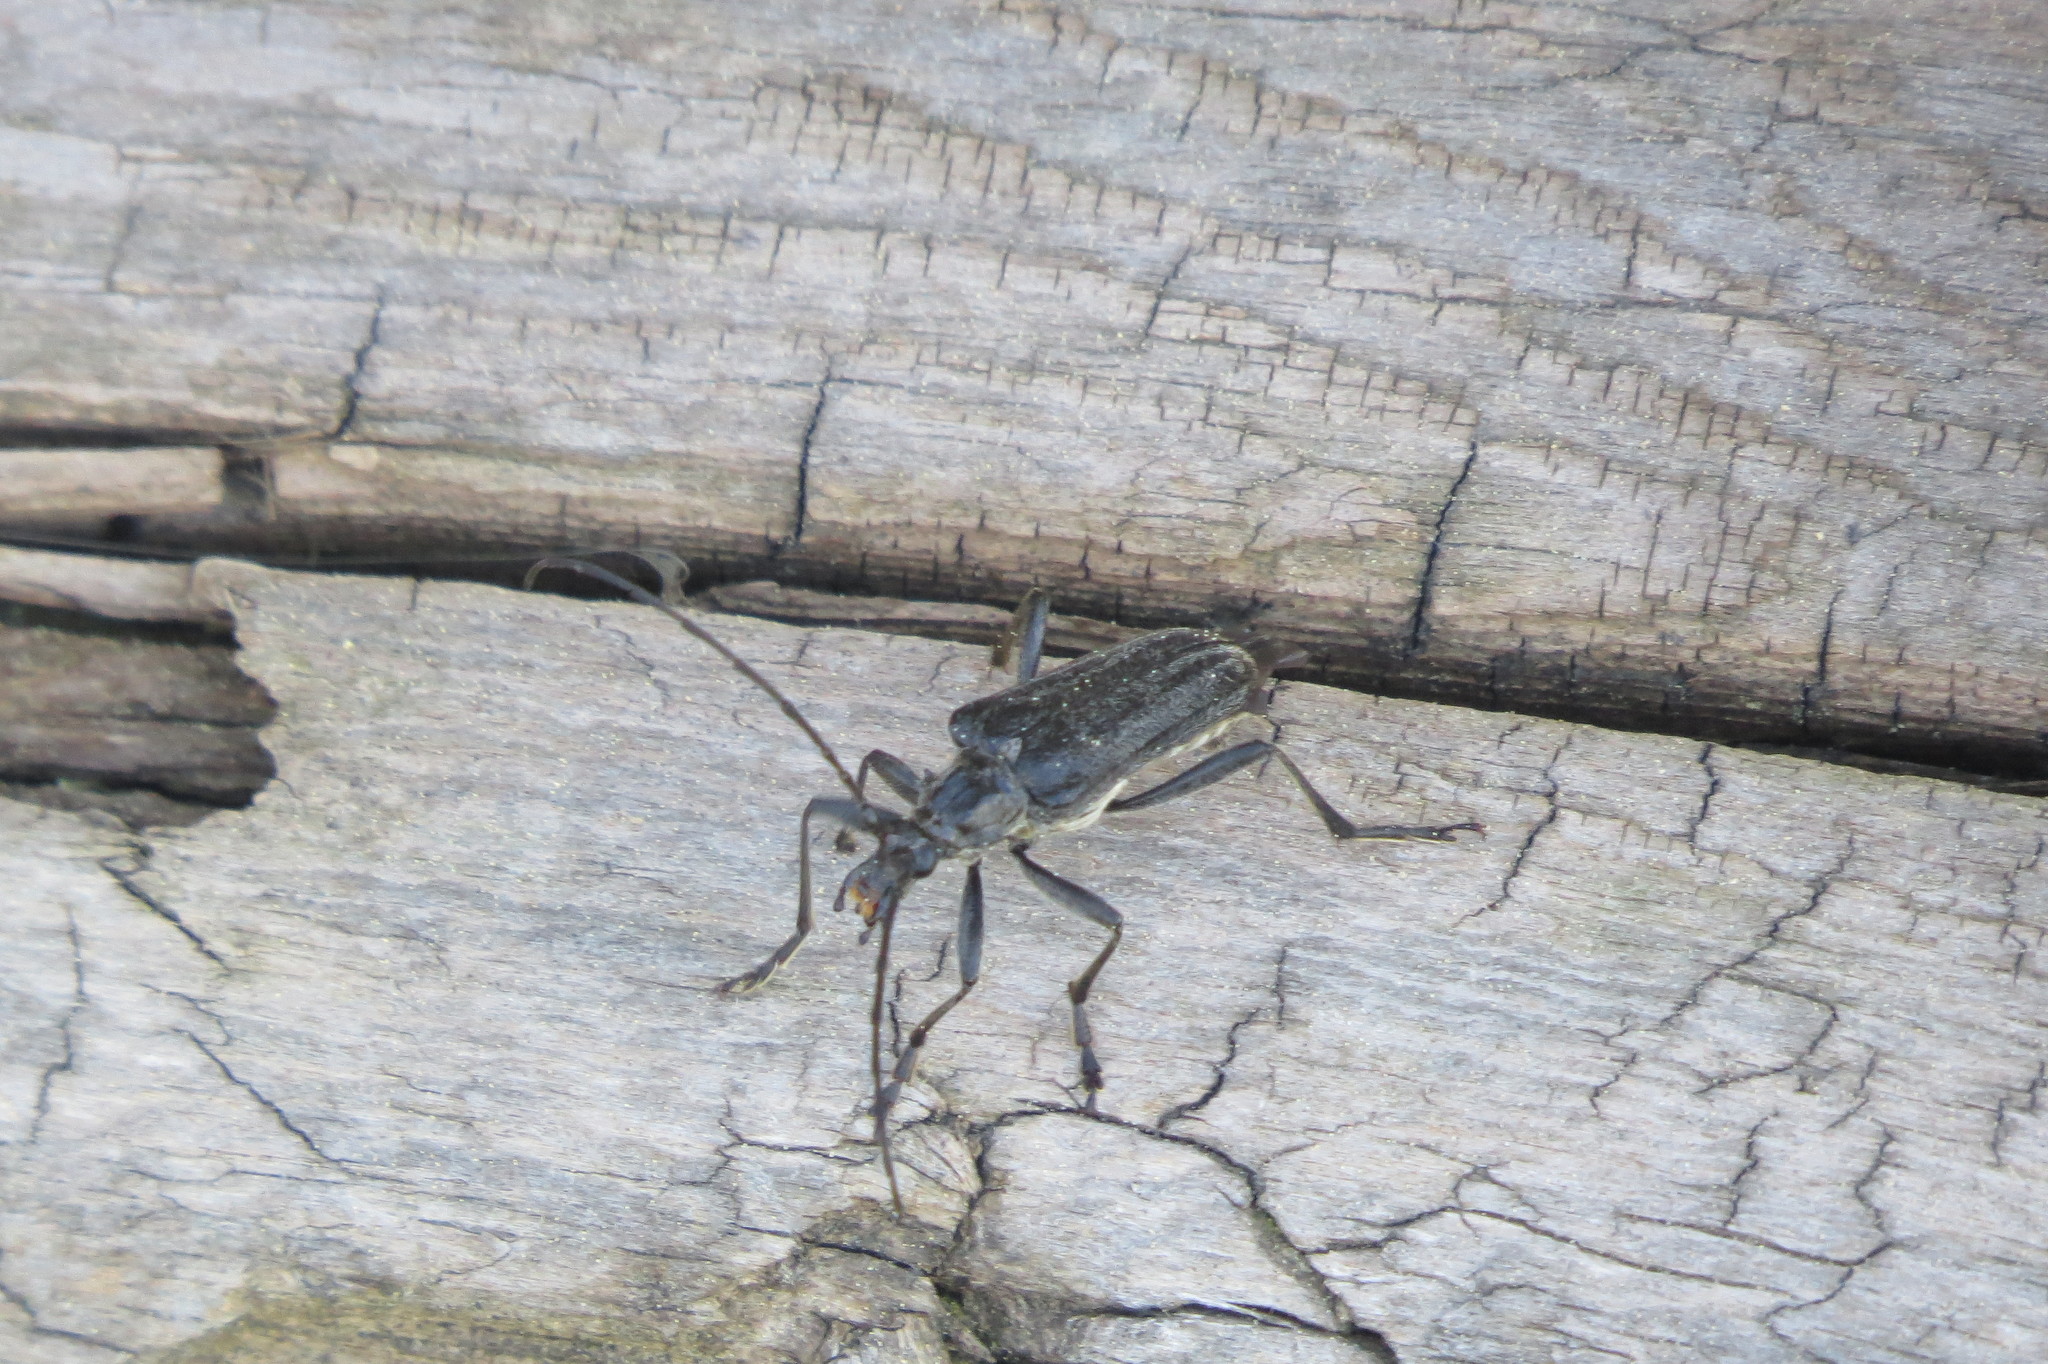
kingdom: Animalia
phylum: Arthropoda
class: Insecta
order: Coleoptera
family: Cerambycidae
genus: Oxymirus
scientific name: Oxymirus cursor
